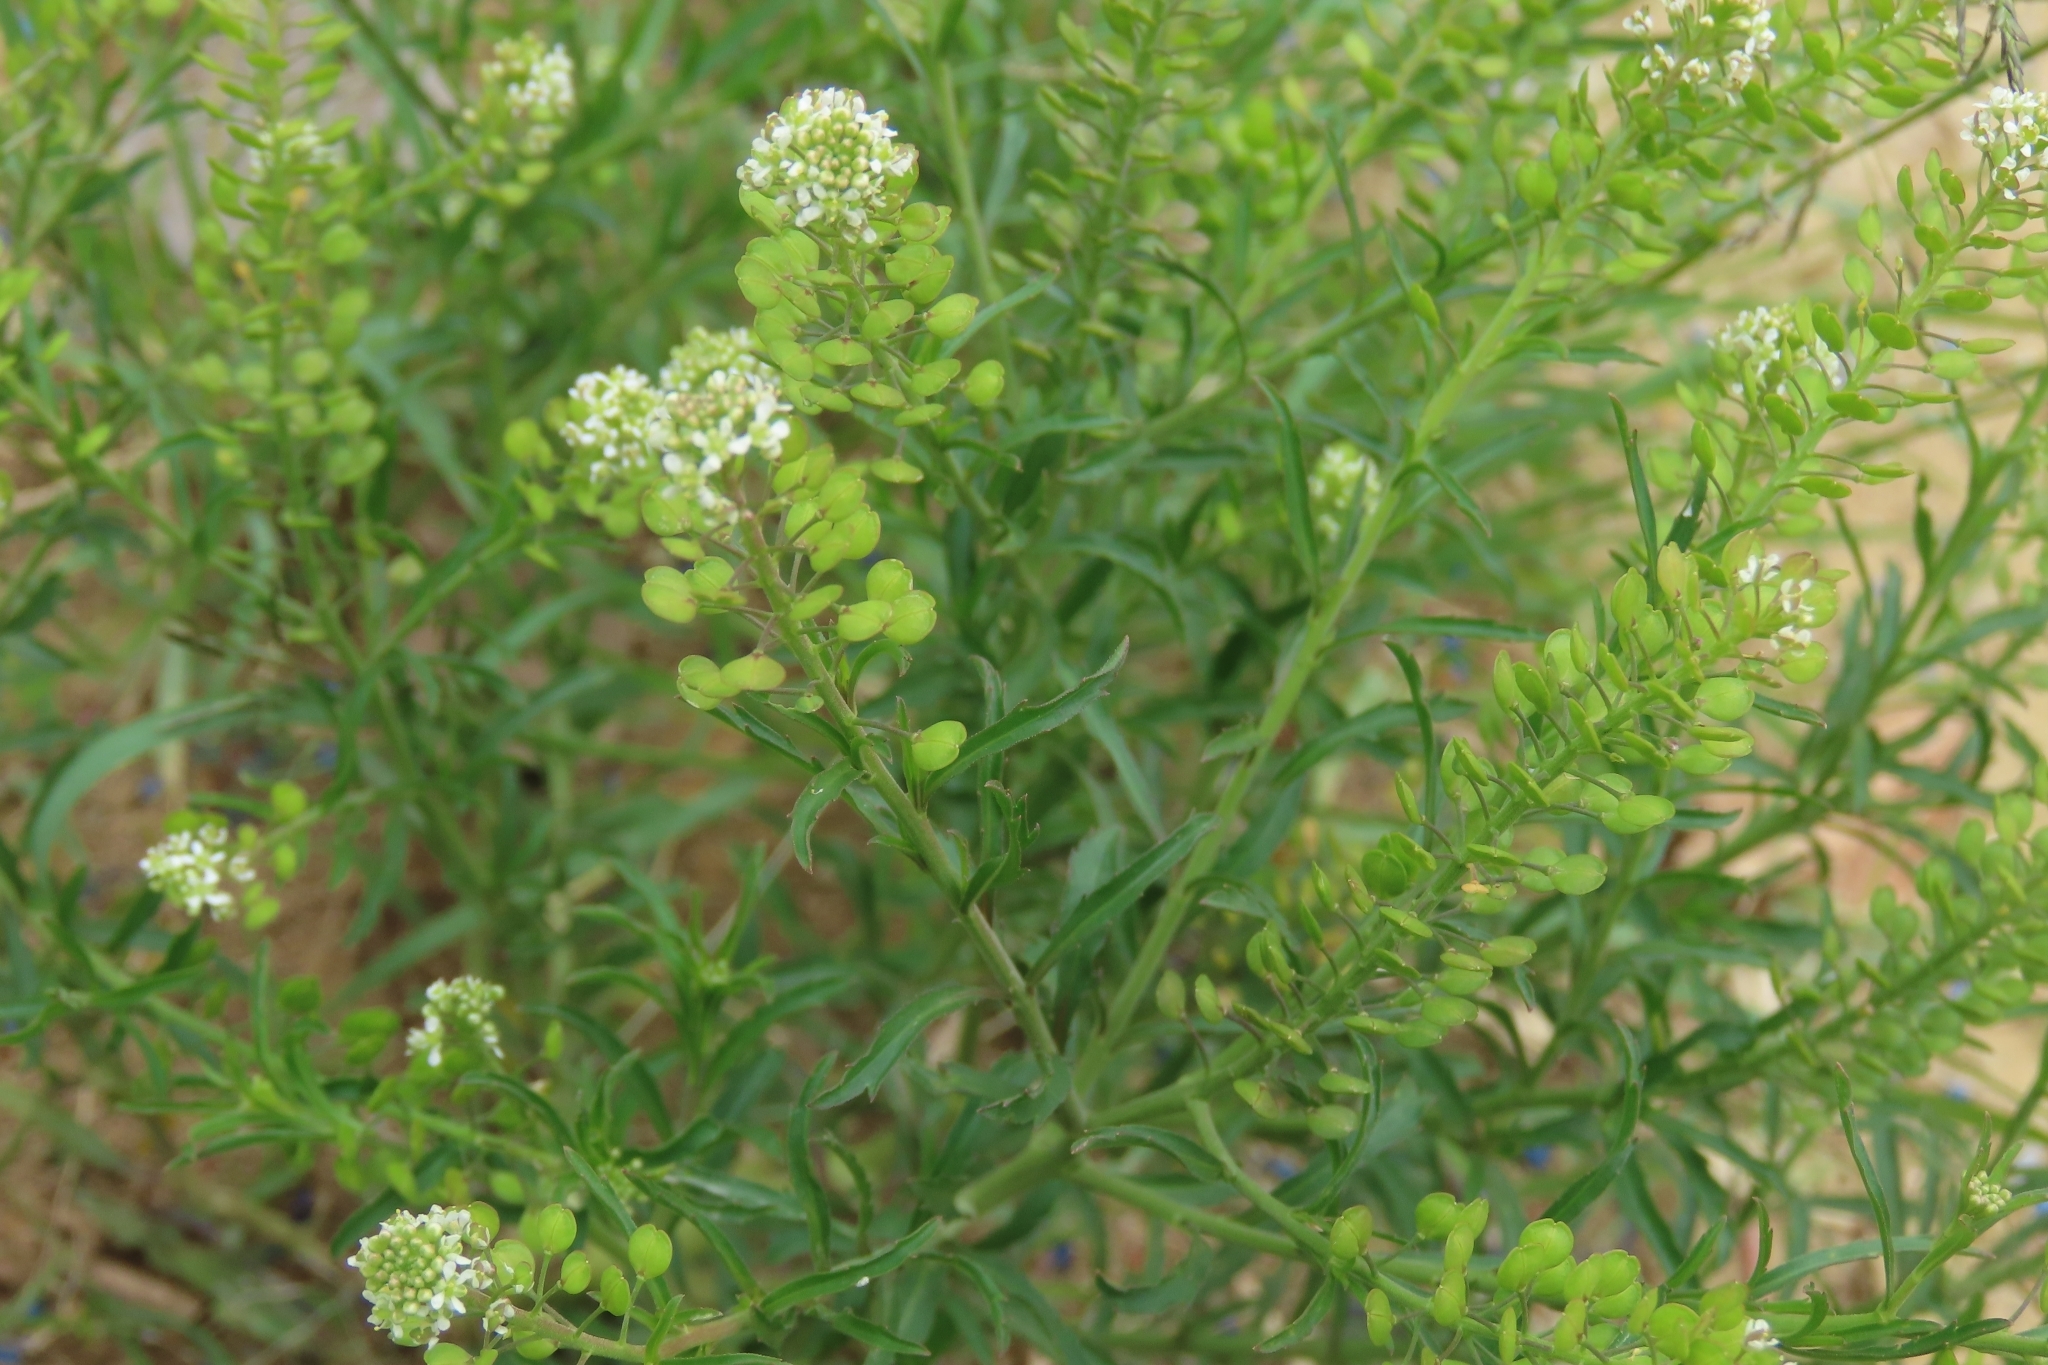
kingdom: Plantae
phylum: Tracheophyta
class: Magnoliopsida
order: Brassicales
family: Brassicaceae
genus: Lepidium
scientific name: Lepidium virginicum
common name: Least pepperwort
